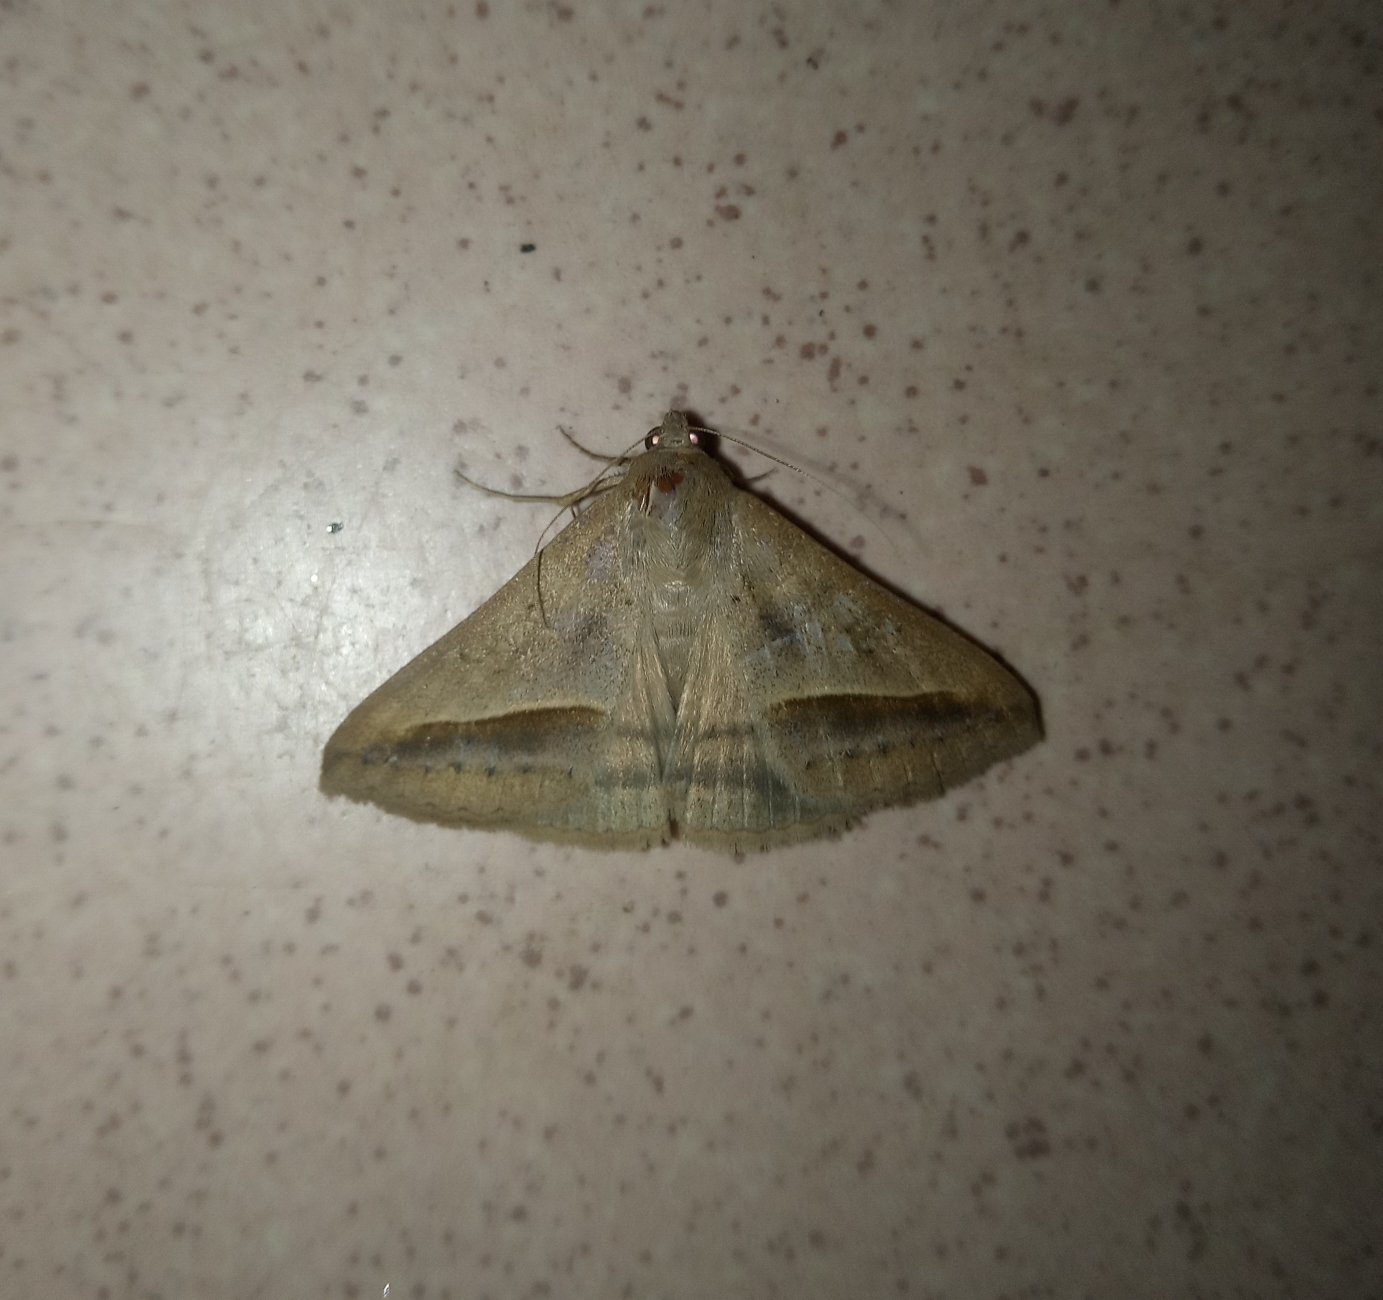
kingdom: Animalia
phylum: Arthropoda
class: Insecta
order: Lepidoptera
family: Erebidae
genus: Mocis
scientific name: Mocis proverai
